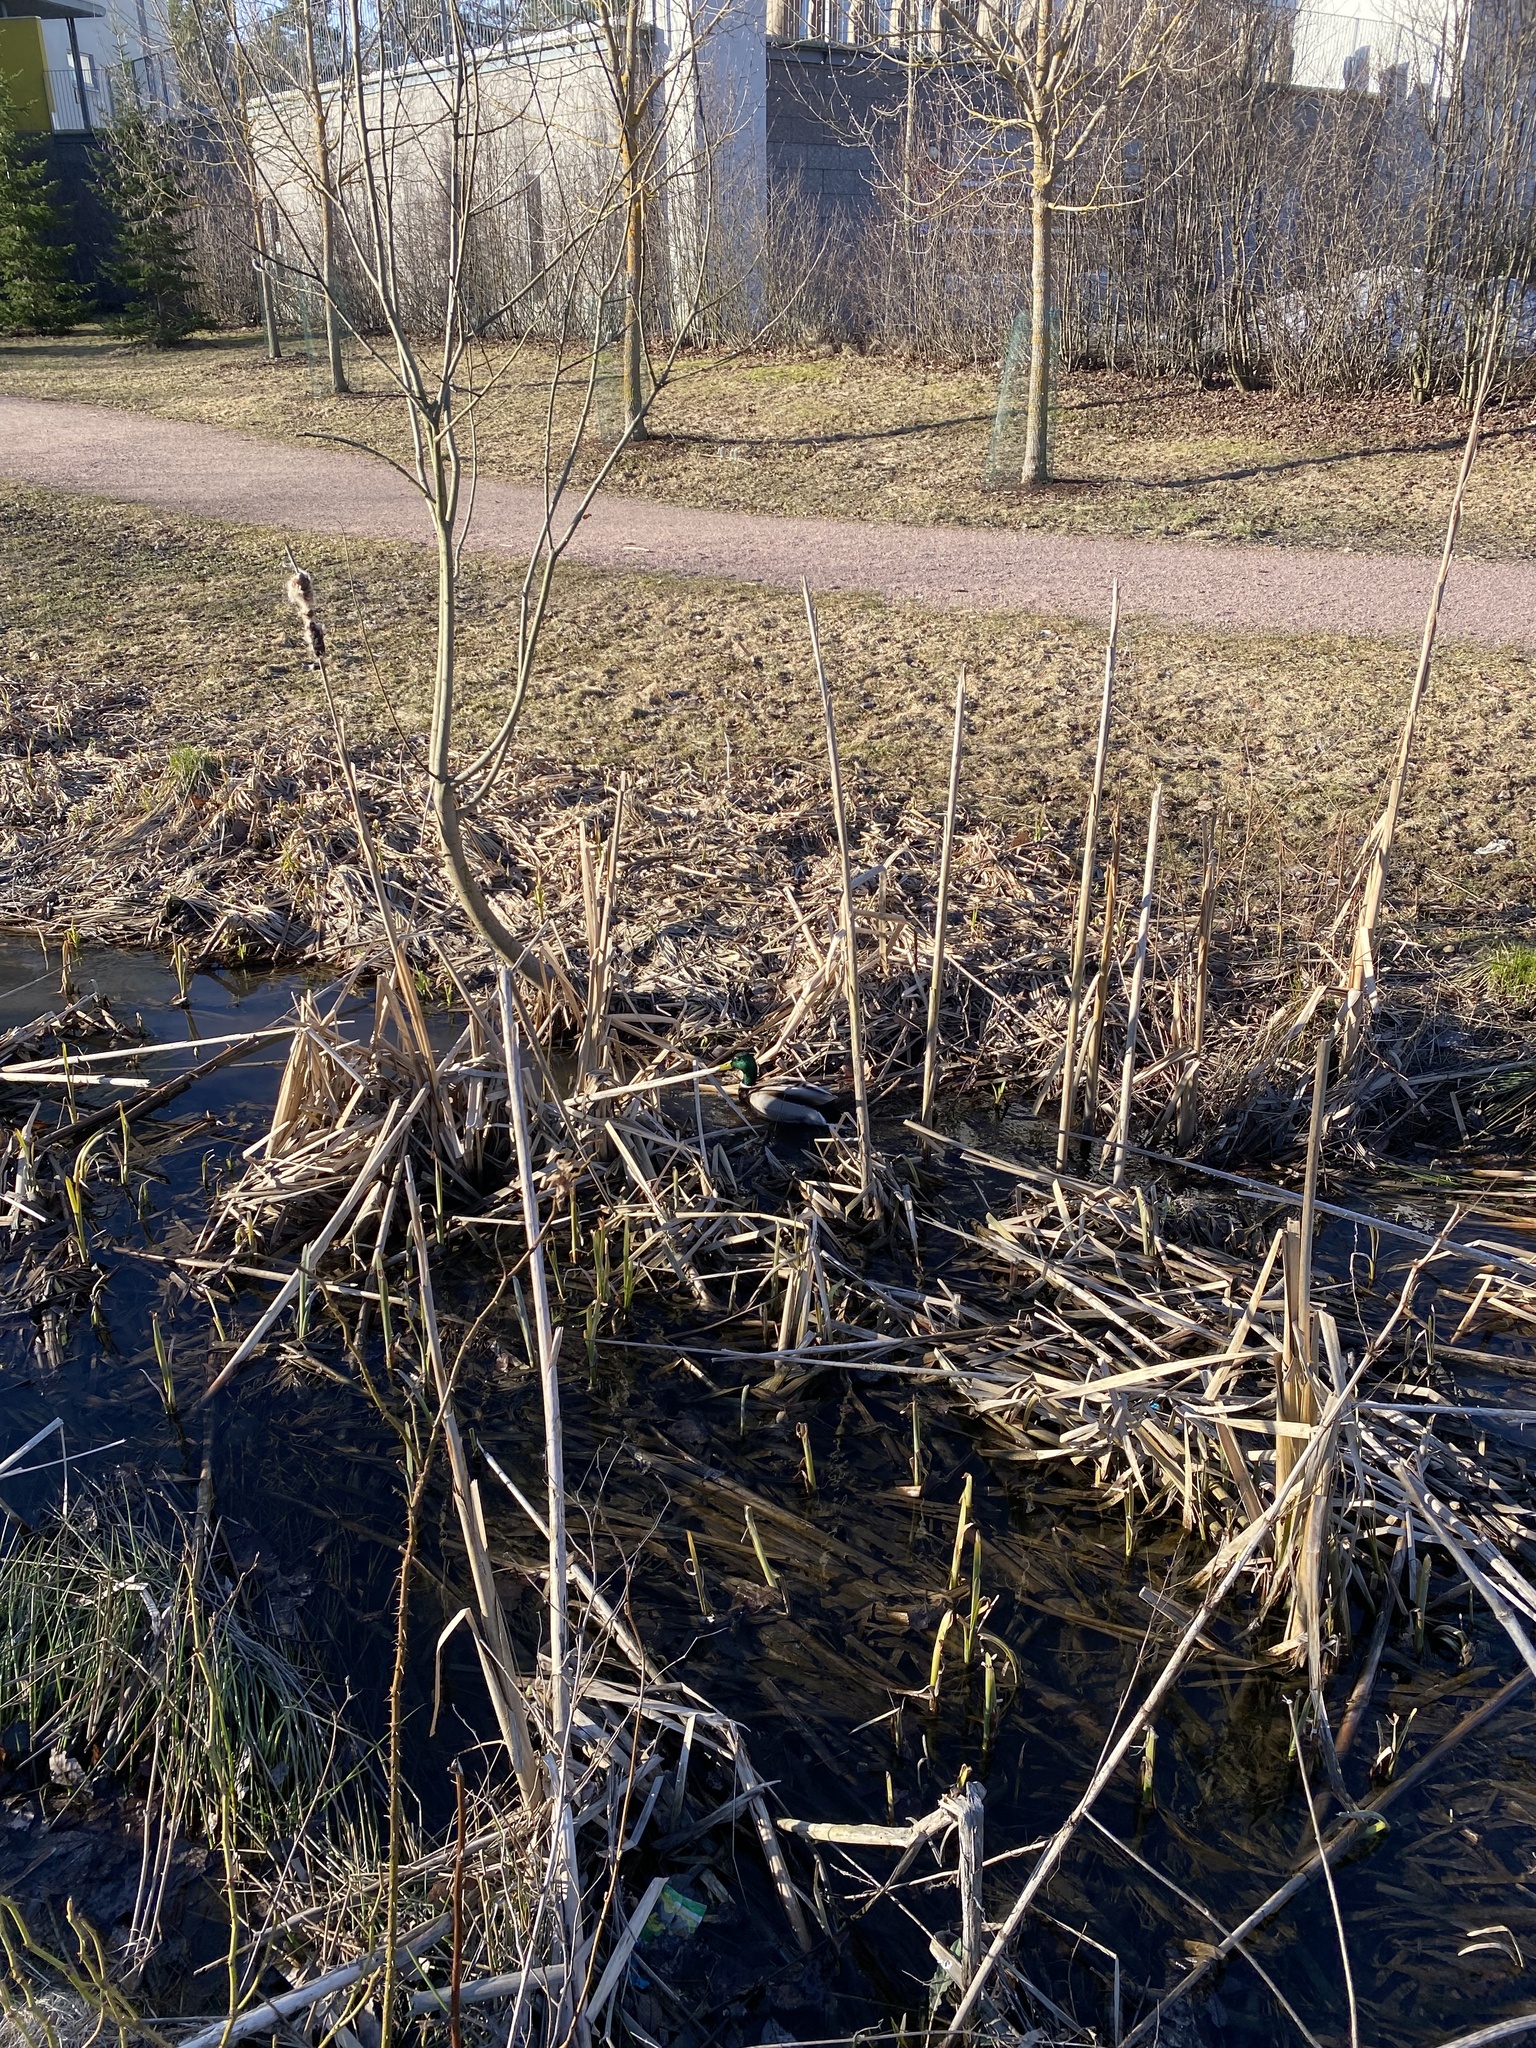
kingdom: Animalia
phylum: Chordata
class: Aves
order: Anseriformes
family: Anatidae
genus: Anas
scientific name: Anas platyrhynchos
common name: Mallard
